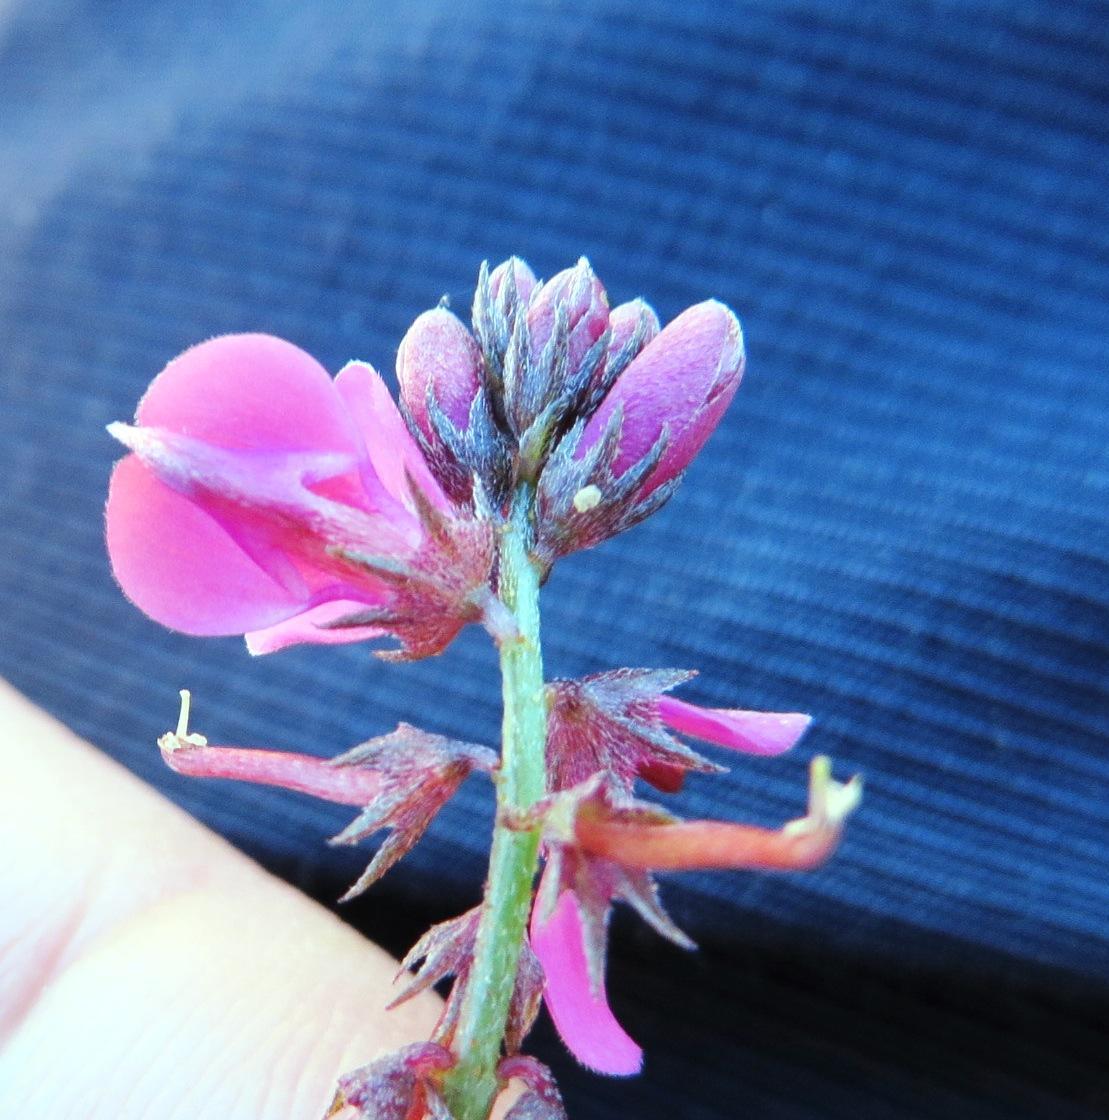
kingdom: Plantae
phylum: Tracheophyta
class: Magnoliopsida
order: Fabales
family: Fabaceae
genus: Indigofera
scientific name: Indigofera
